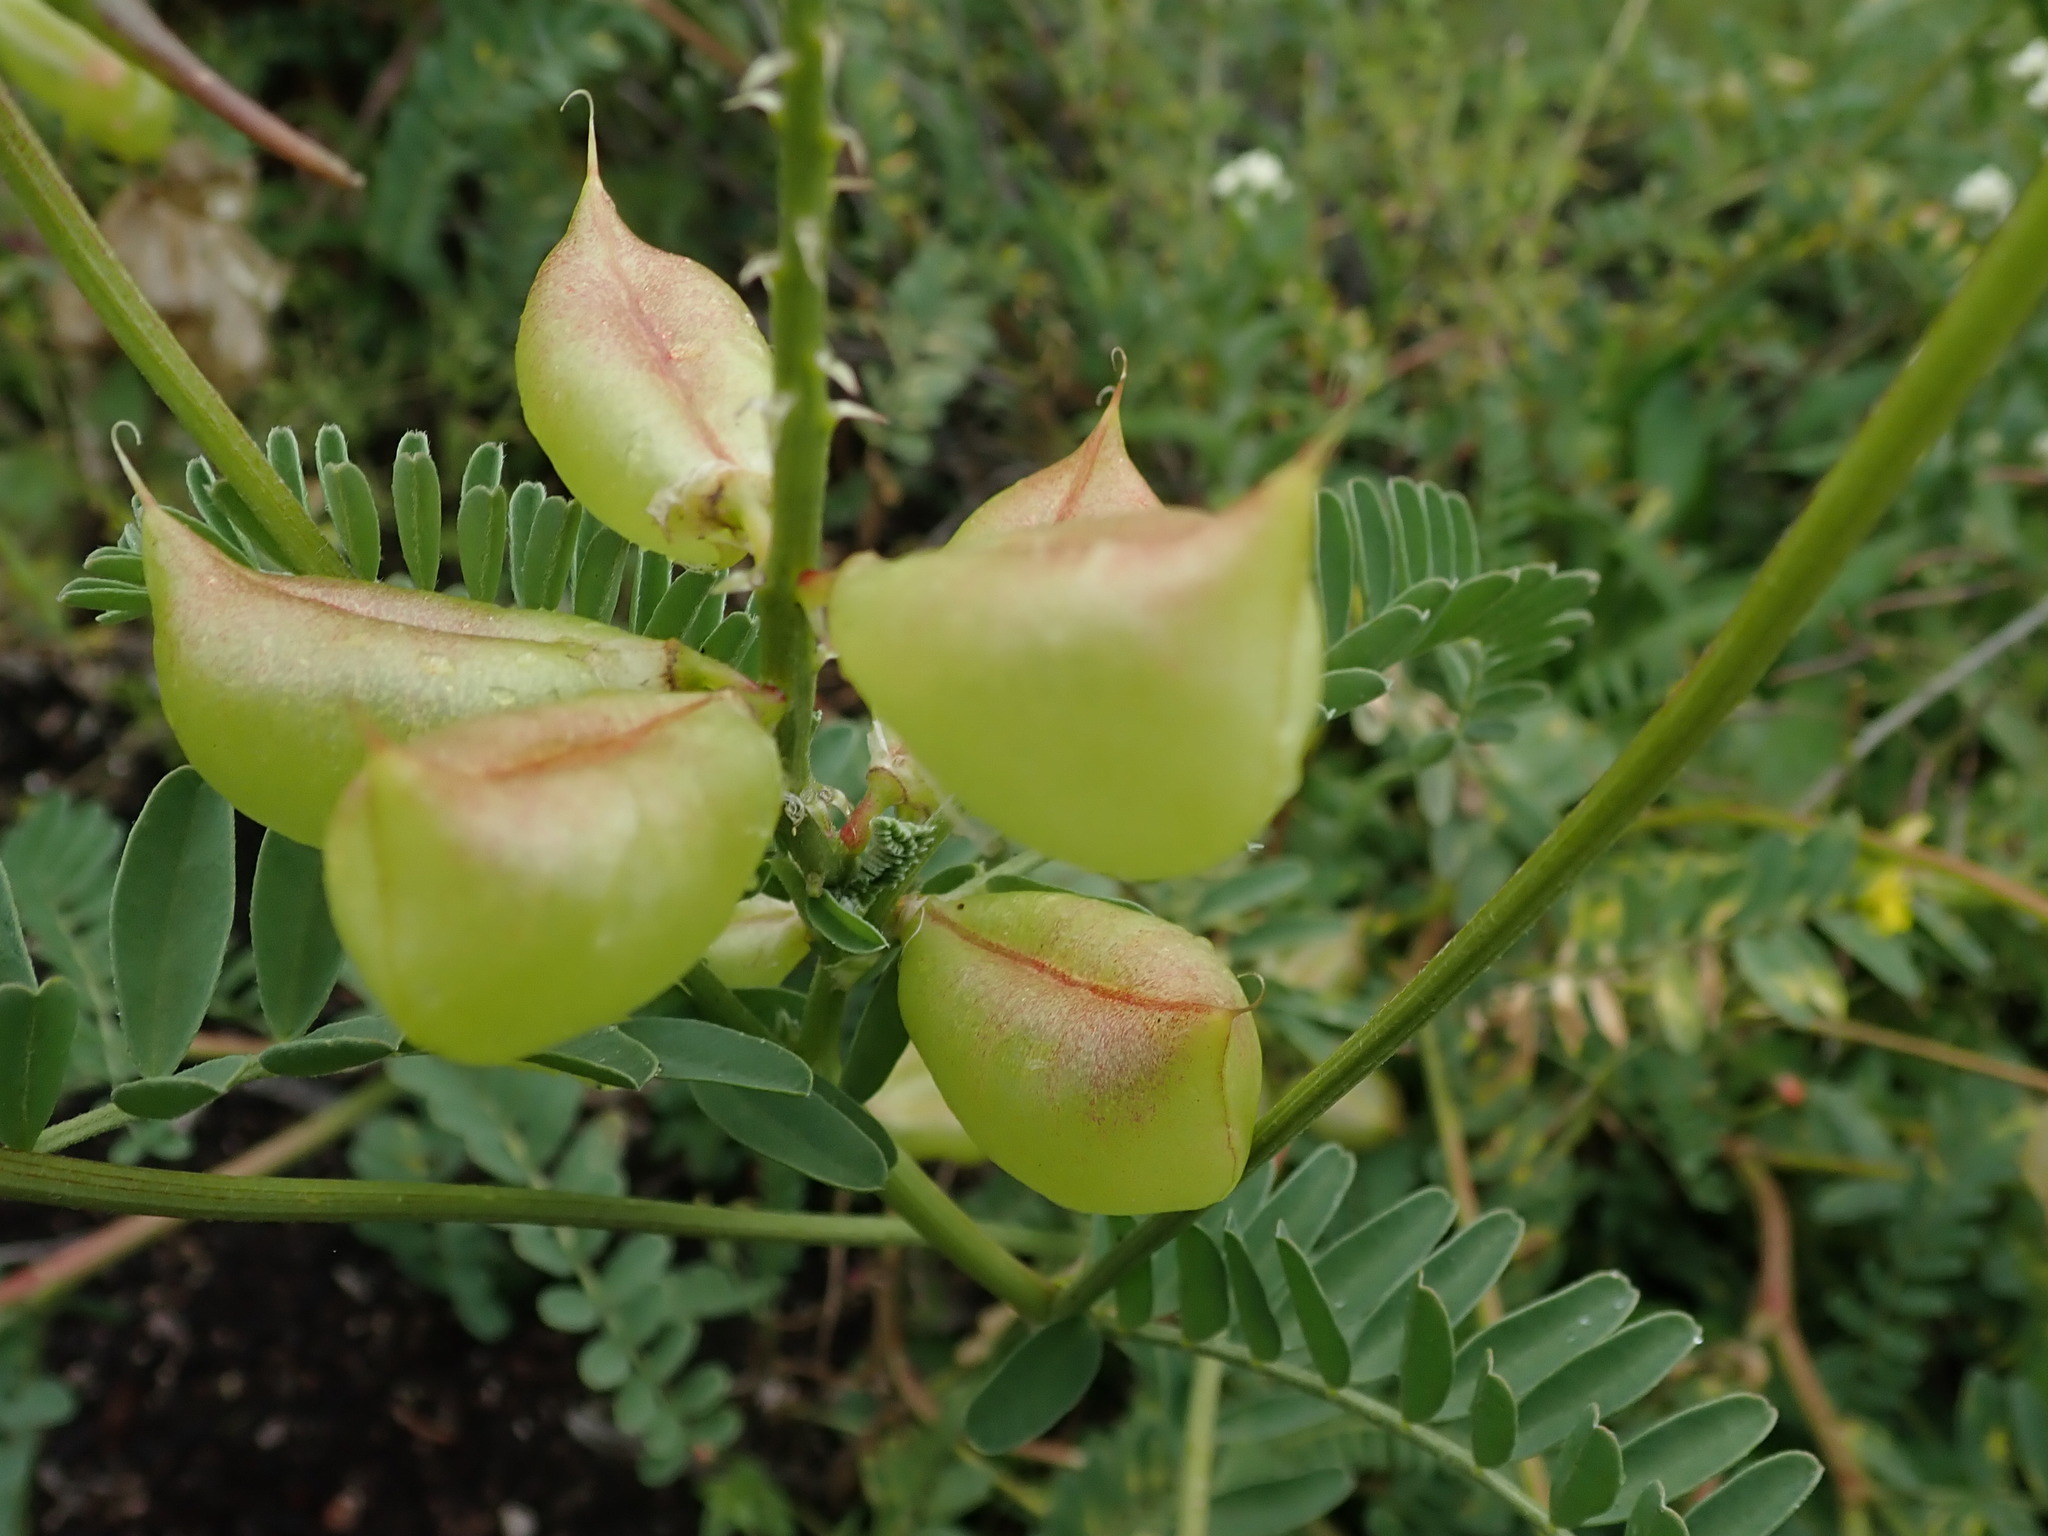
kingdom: Plantae
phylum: Tracheophyta
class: Magnoliopsida
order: Fabales
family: Fabaceae
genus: Astragalus
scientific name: Astragalus nuttallii
